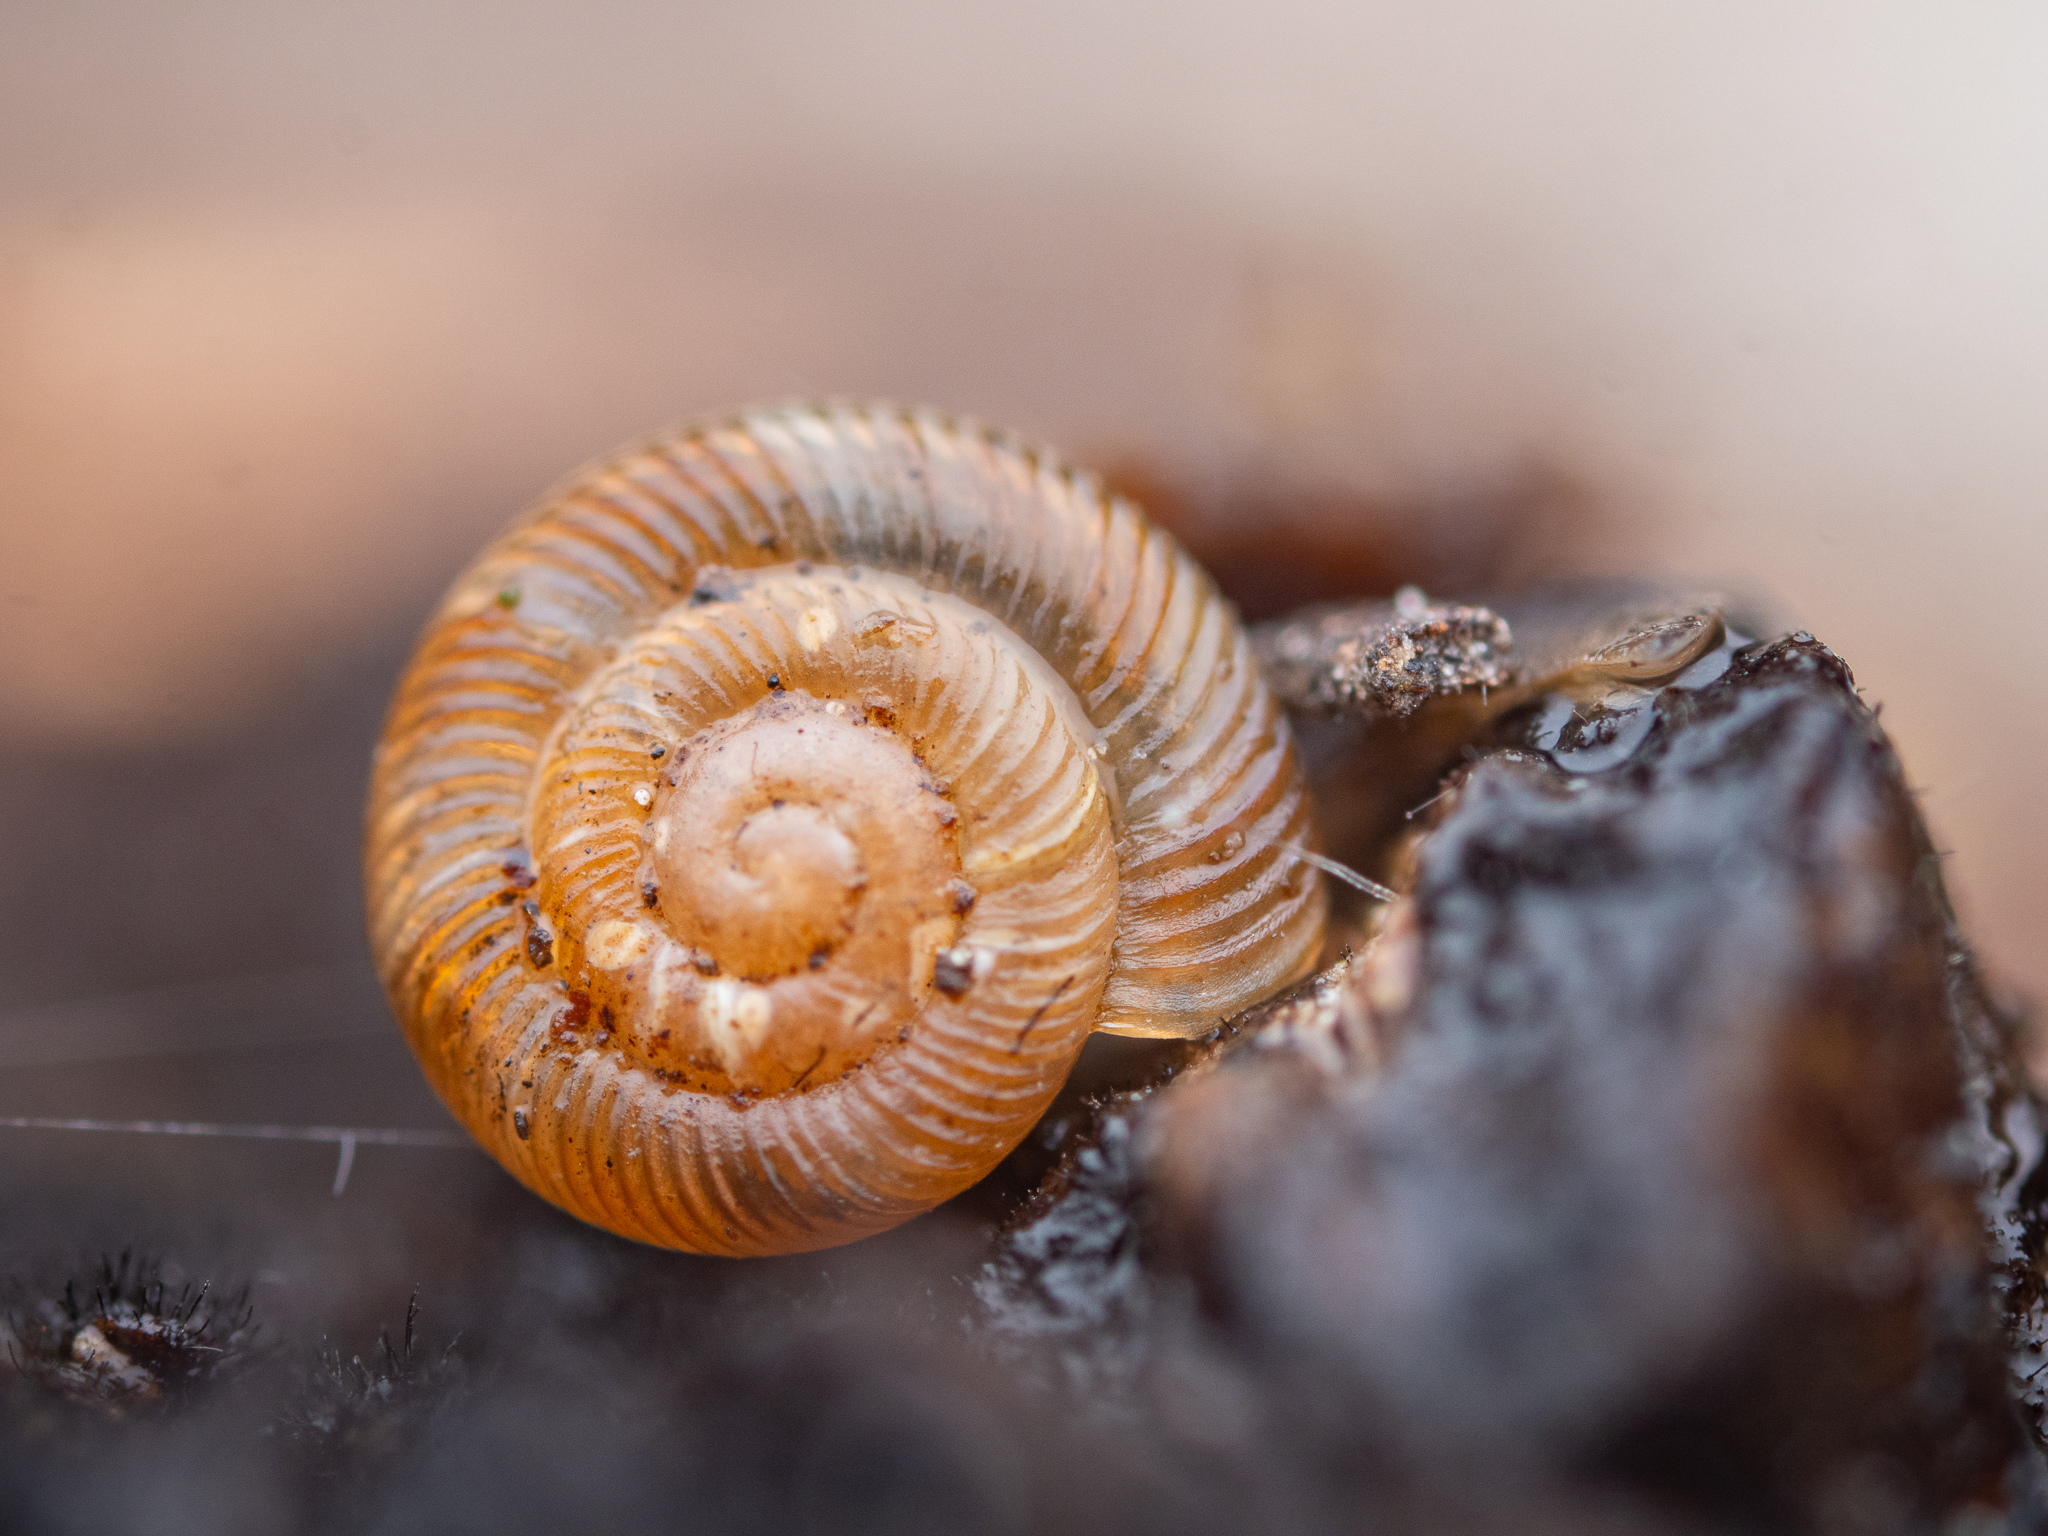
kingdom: Animalia
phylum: Mollusca
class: Gastropoda
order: Stylommatophora
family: Discidae
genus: Discus
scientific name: Discus rotundatus
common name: Rounded snail
